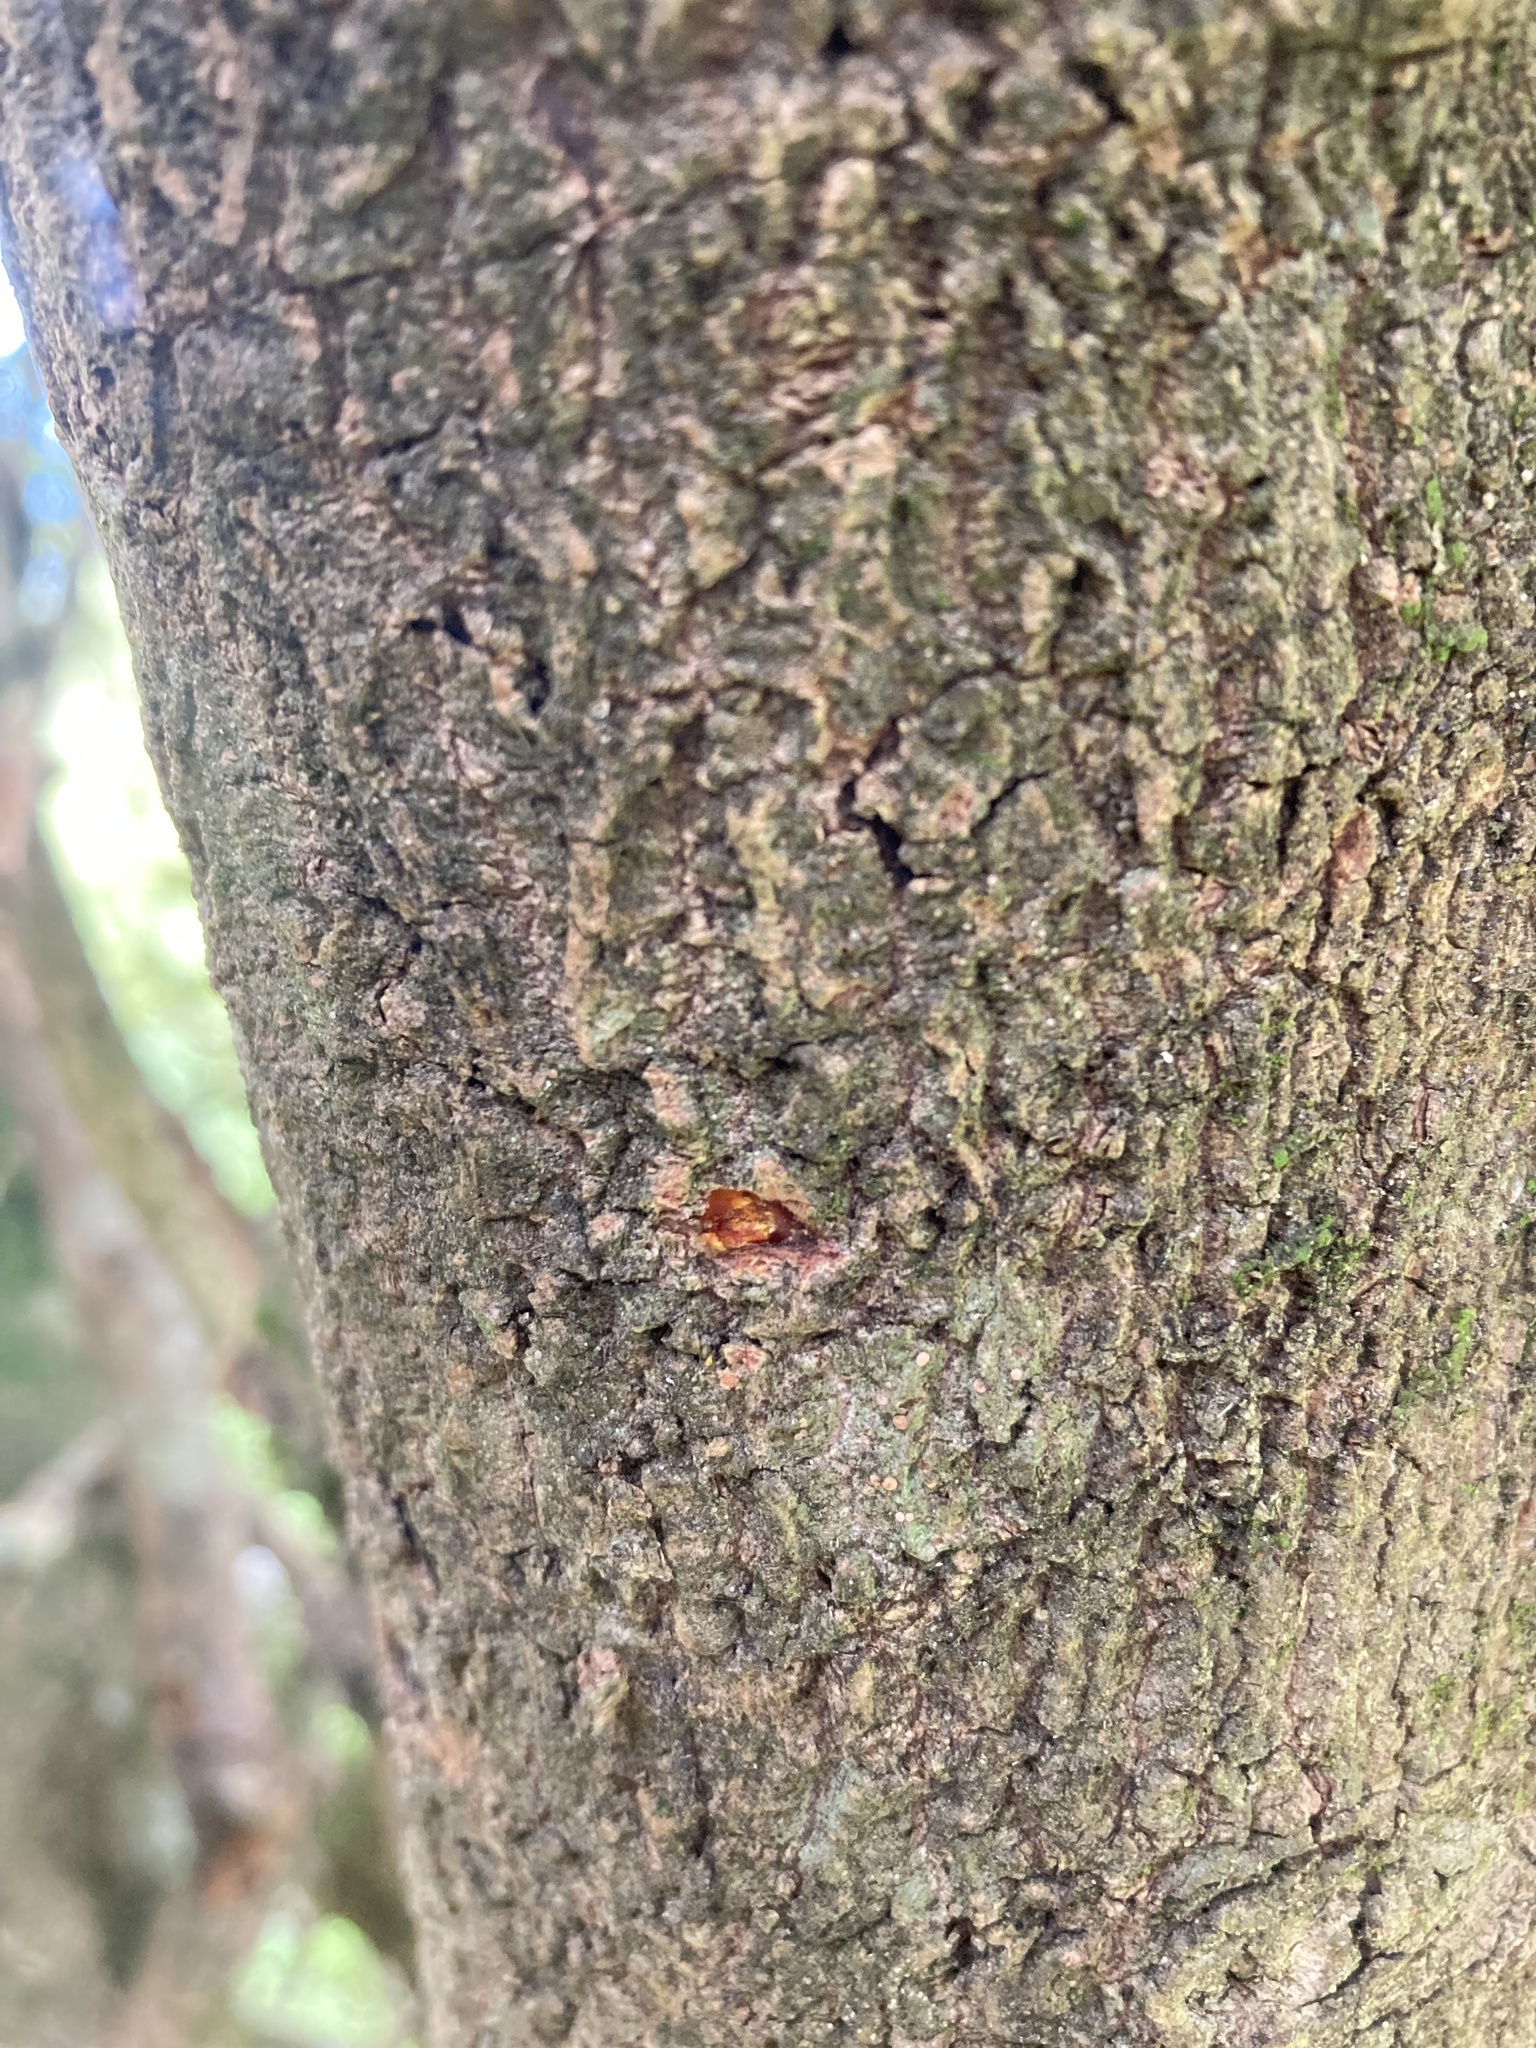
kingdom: Plantae
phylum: Tracheophyta
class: Magnoliopsida
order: Gentianales
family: Rubiaceae
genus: Coprosma
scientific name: Coprosma wallii
